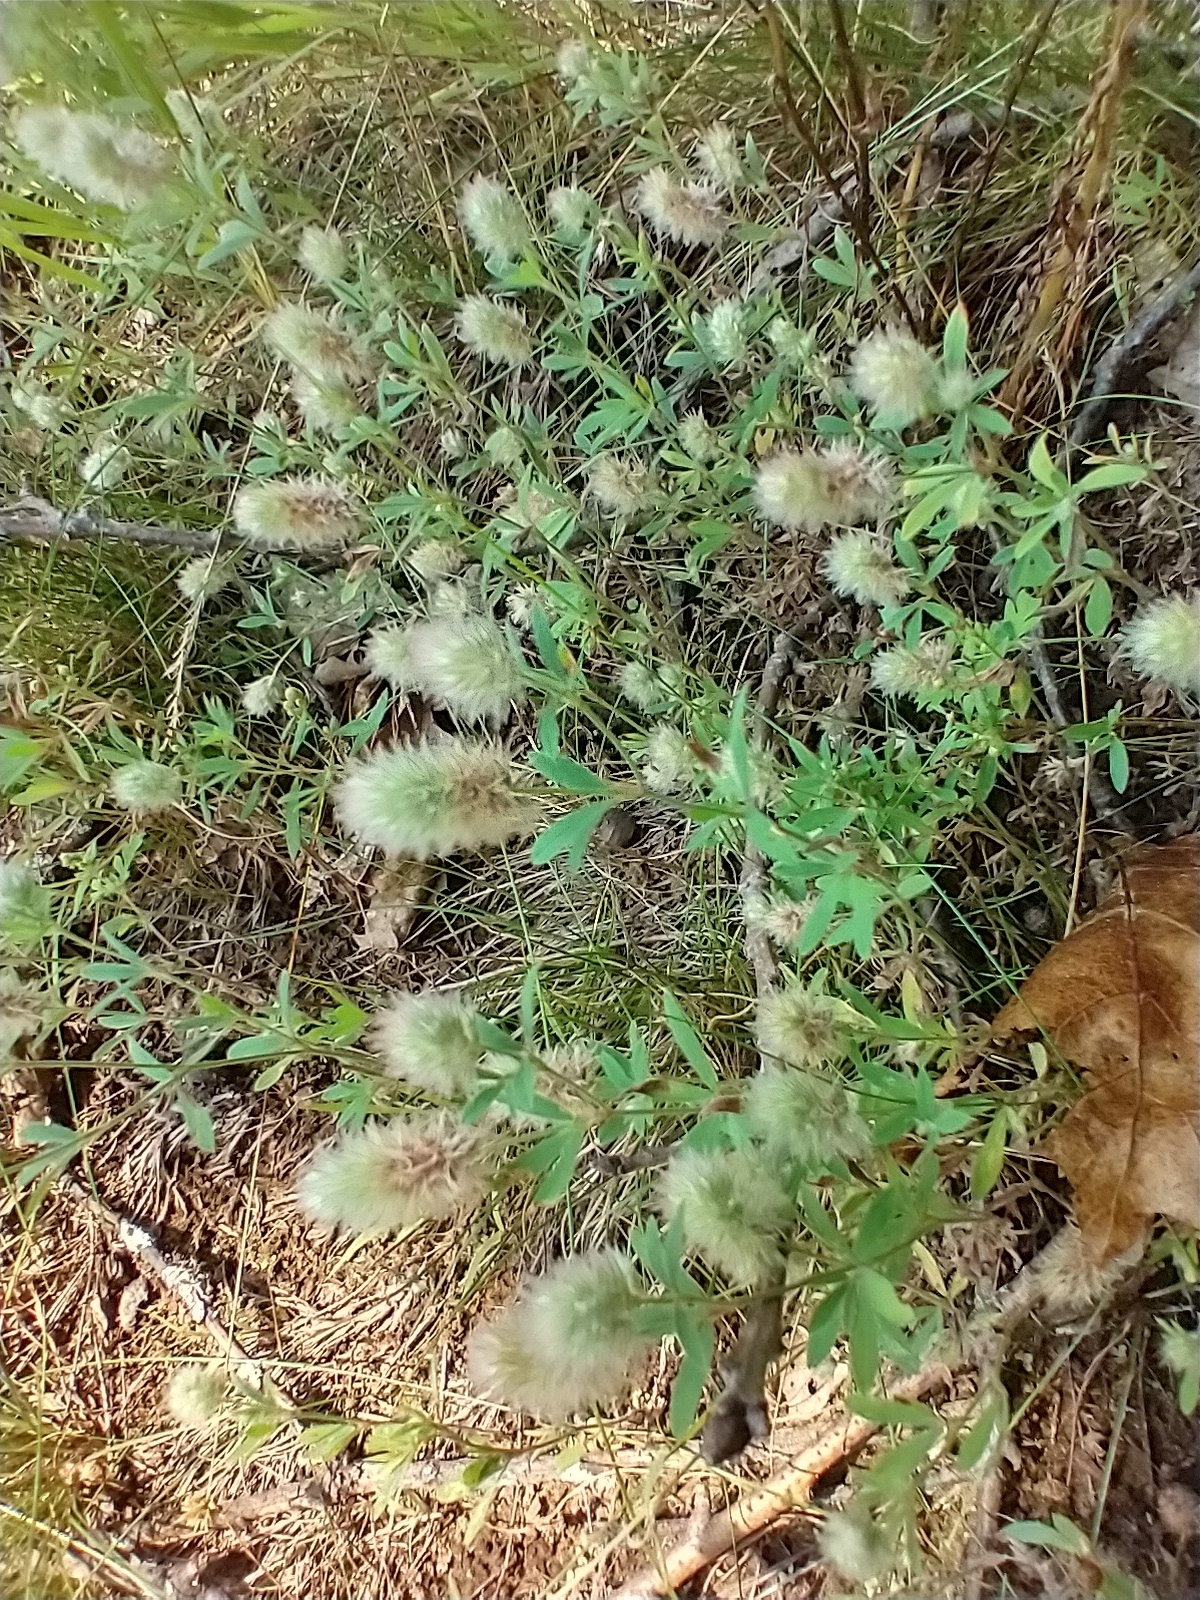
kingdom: Plantae
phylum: Tracheophyta
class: Magnoliopsida
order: Fabales
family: Fabaceae
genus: Trifolium
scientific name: Trifolium arvense
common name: Hare's-foot clover
